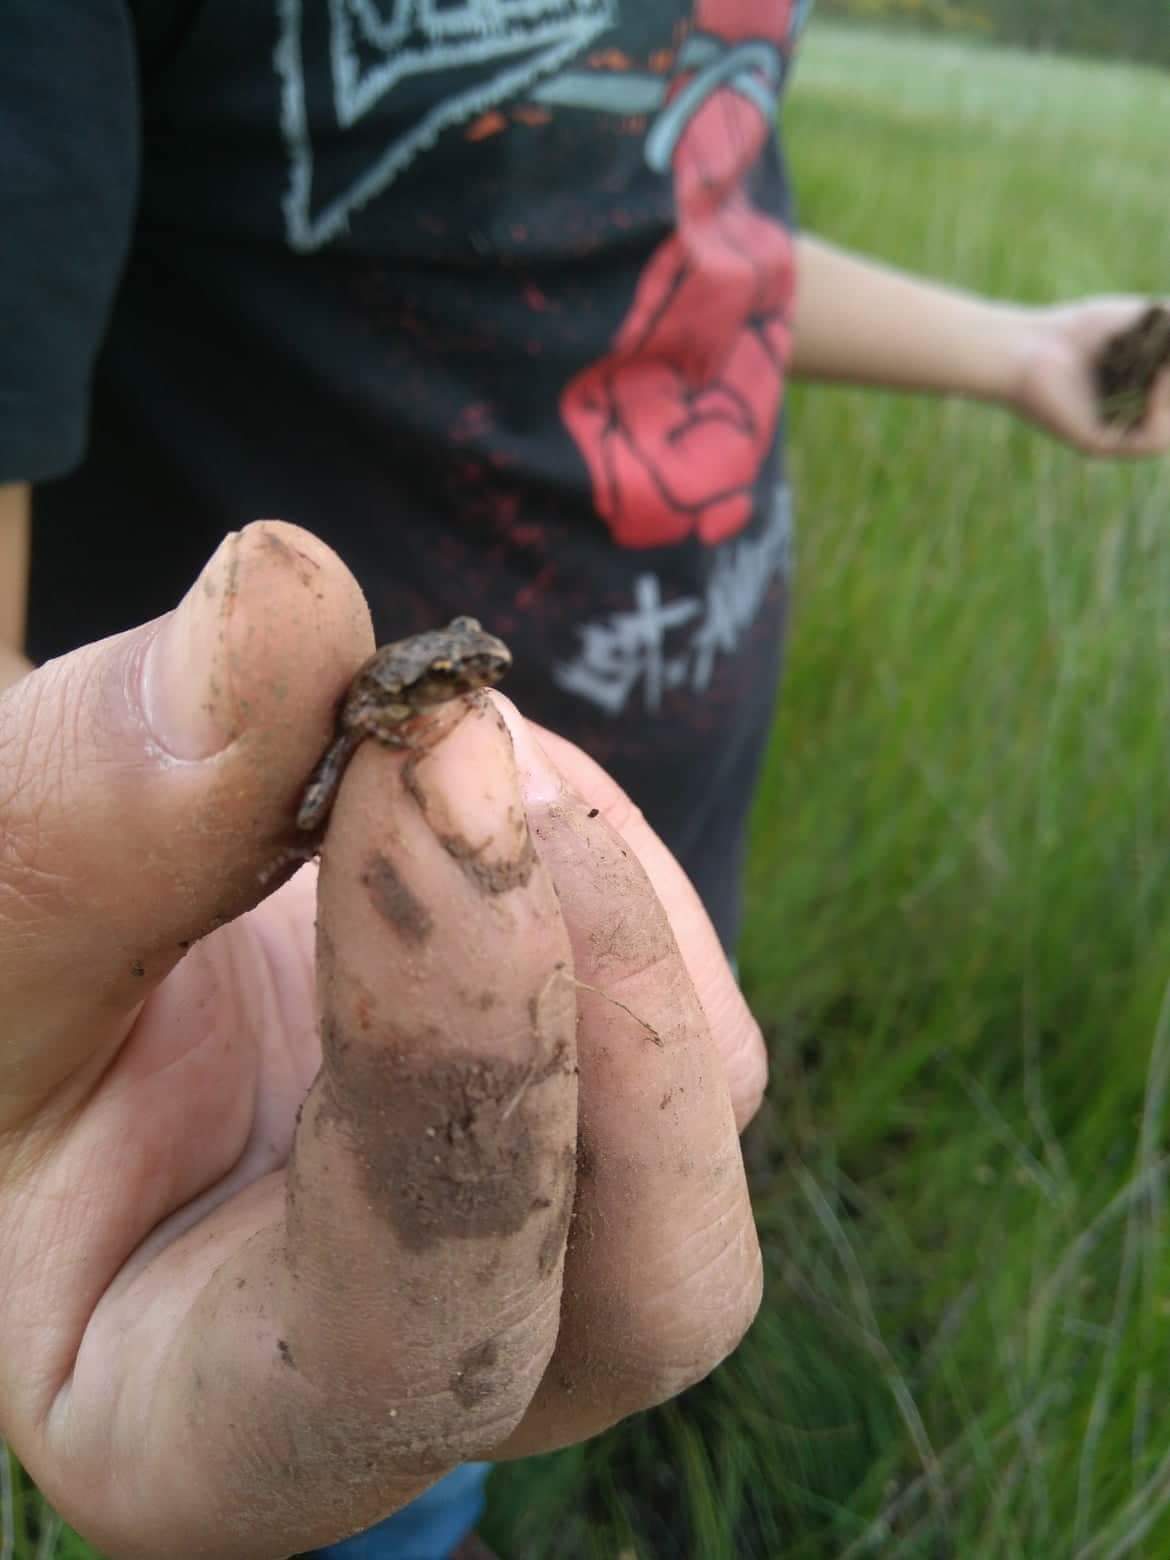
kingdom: Animalia
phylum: Chordata
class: Amphibia
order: Anura
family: Pelodytidae
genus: Pelodytes
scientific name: Pelodytes atlanticus
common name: Lusitanian parsley frog
